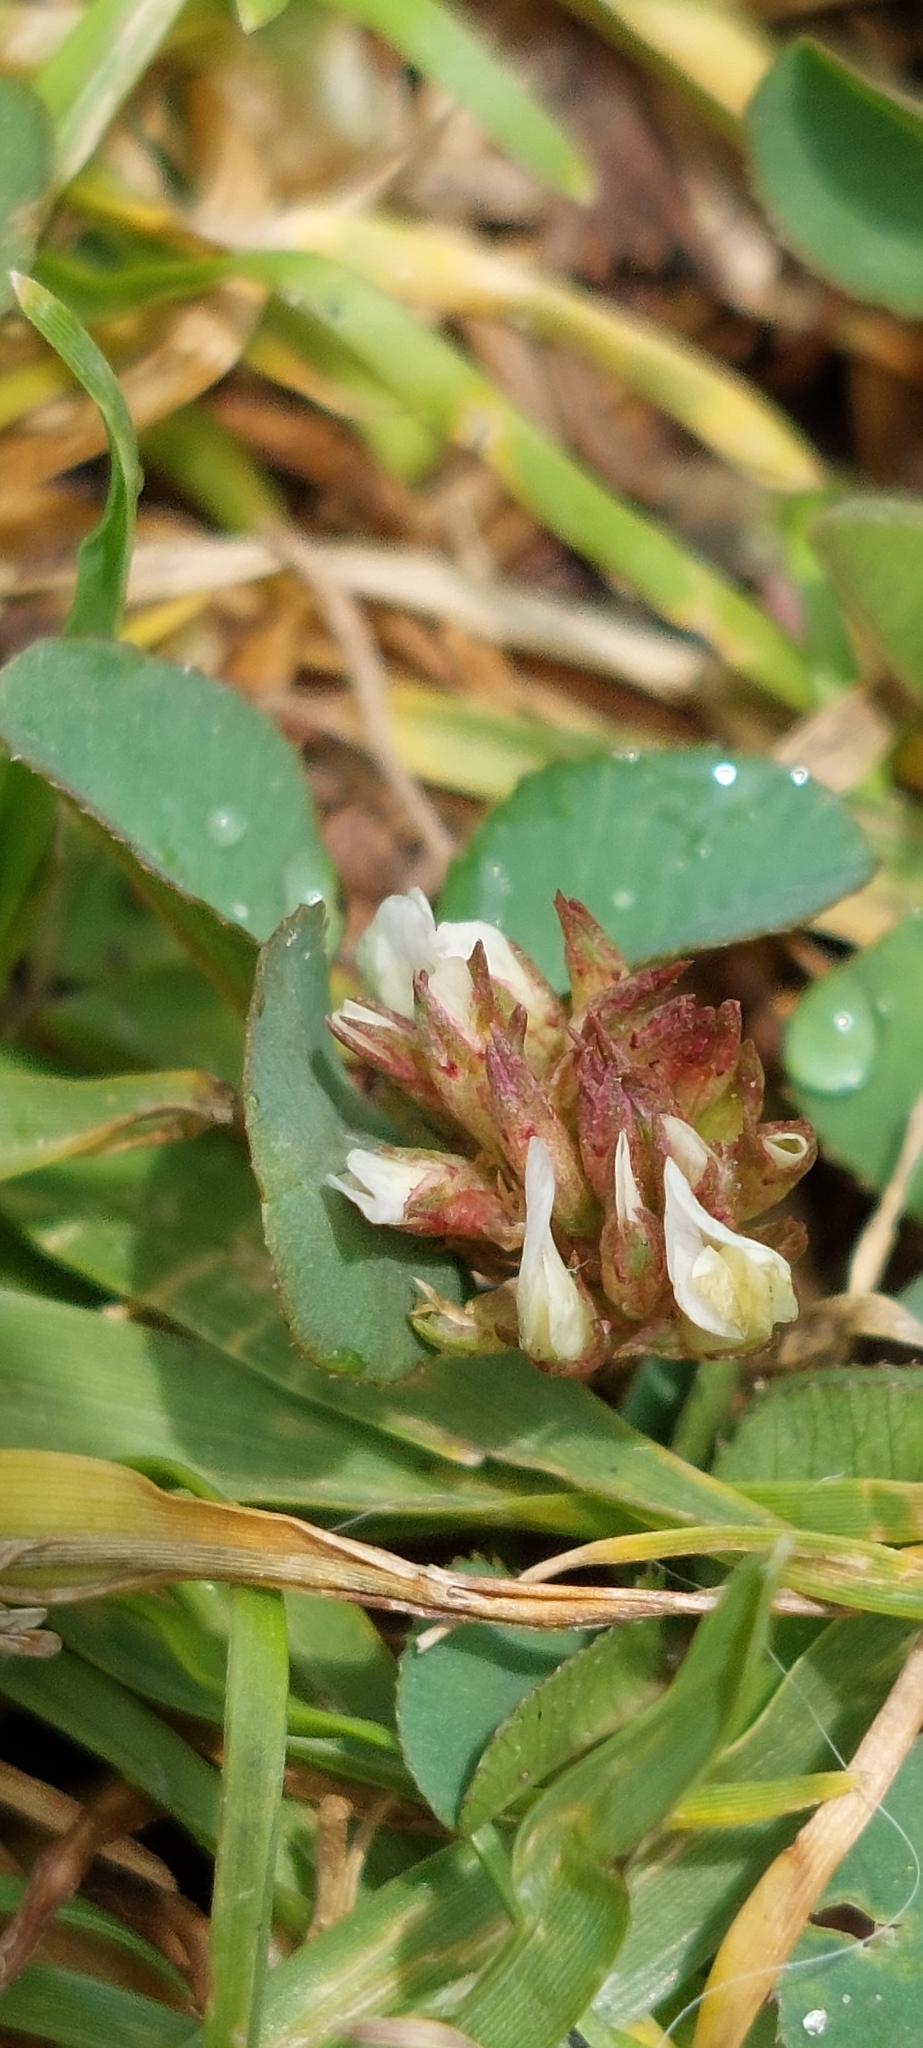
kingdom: Plantae
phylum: Tracheophyta
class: Magnoliopsida
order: Fabales
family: Fabaceae
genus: Trifolium
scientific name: Trifolium repens
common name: White clover
